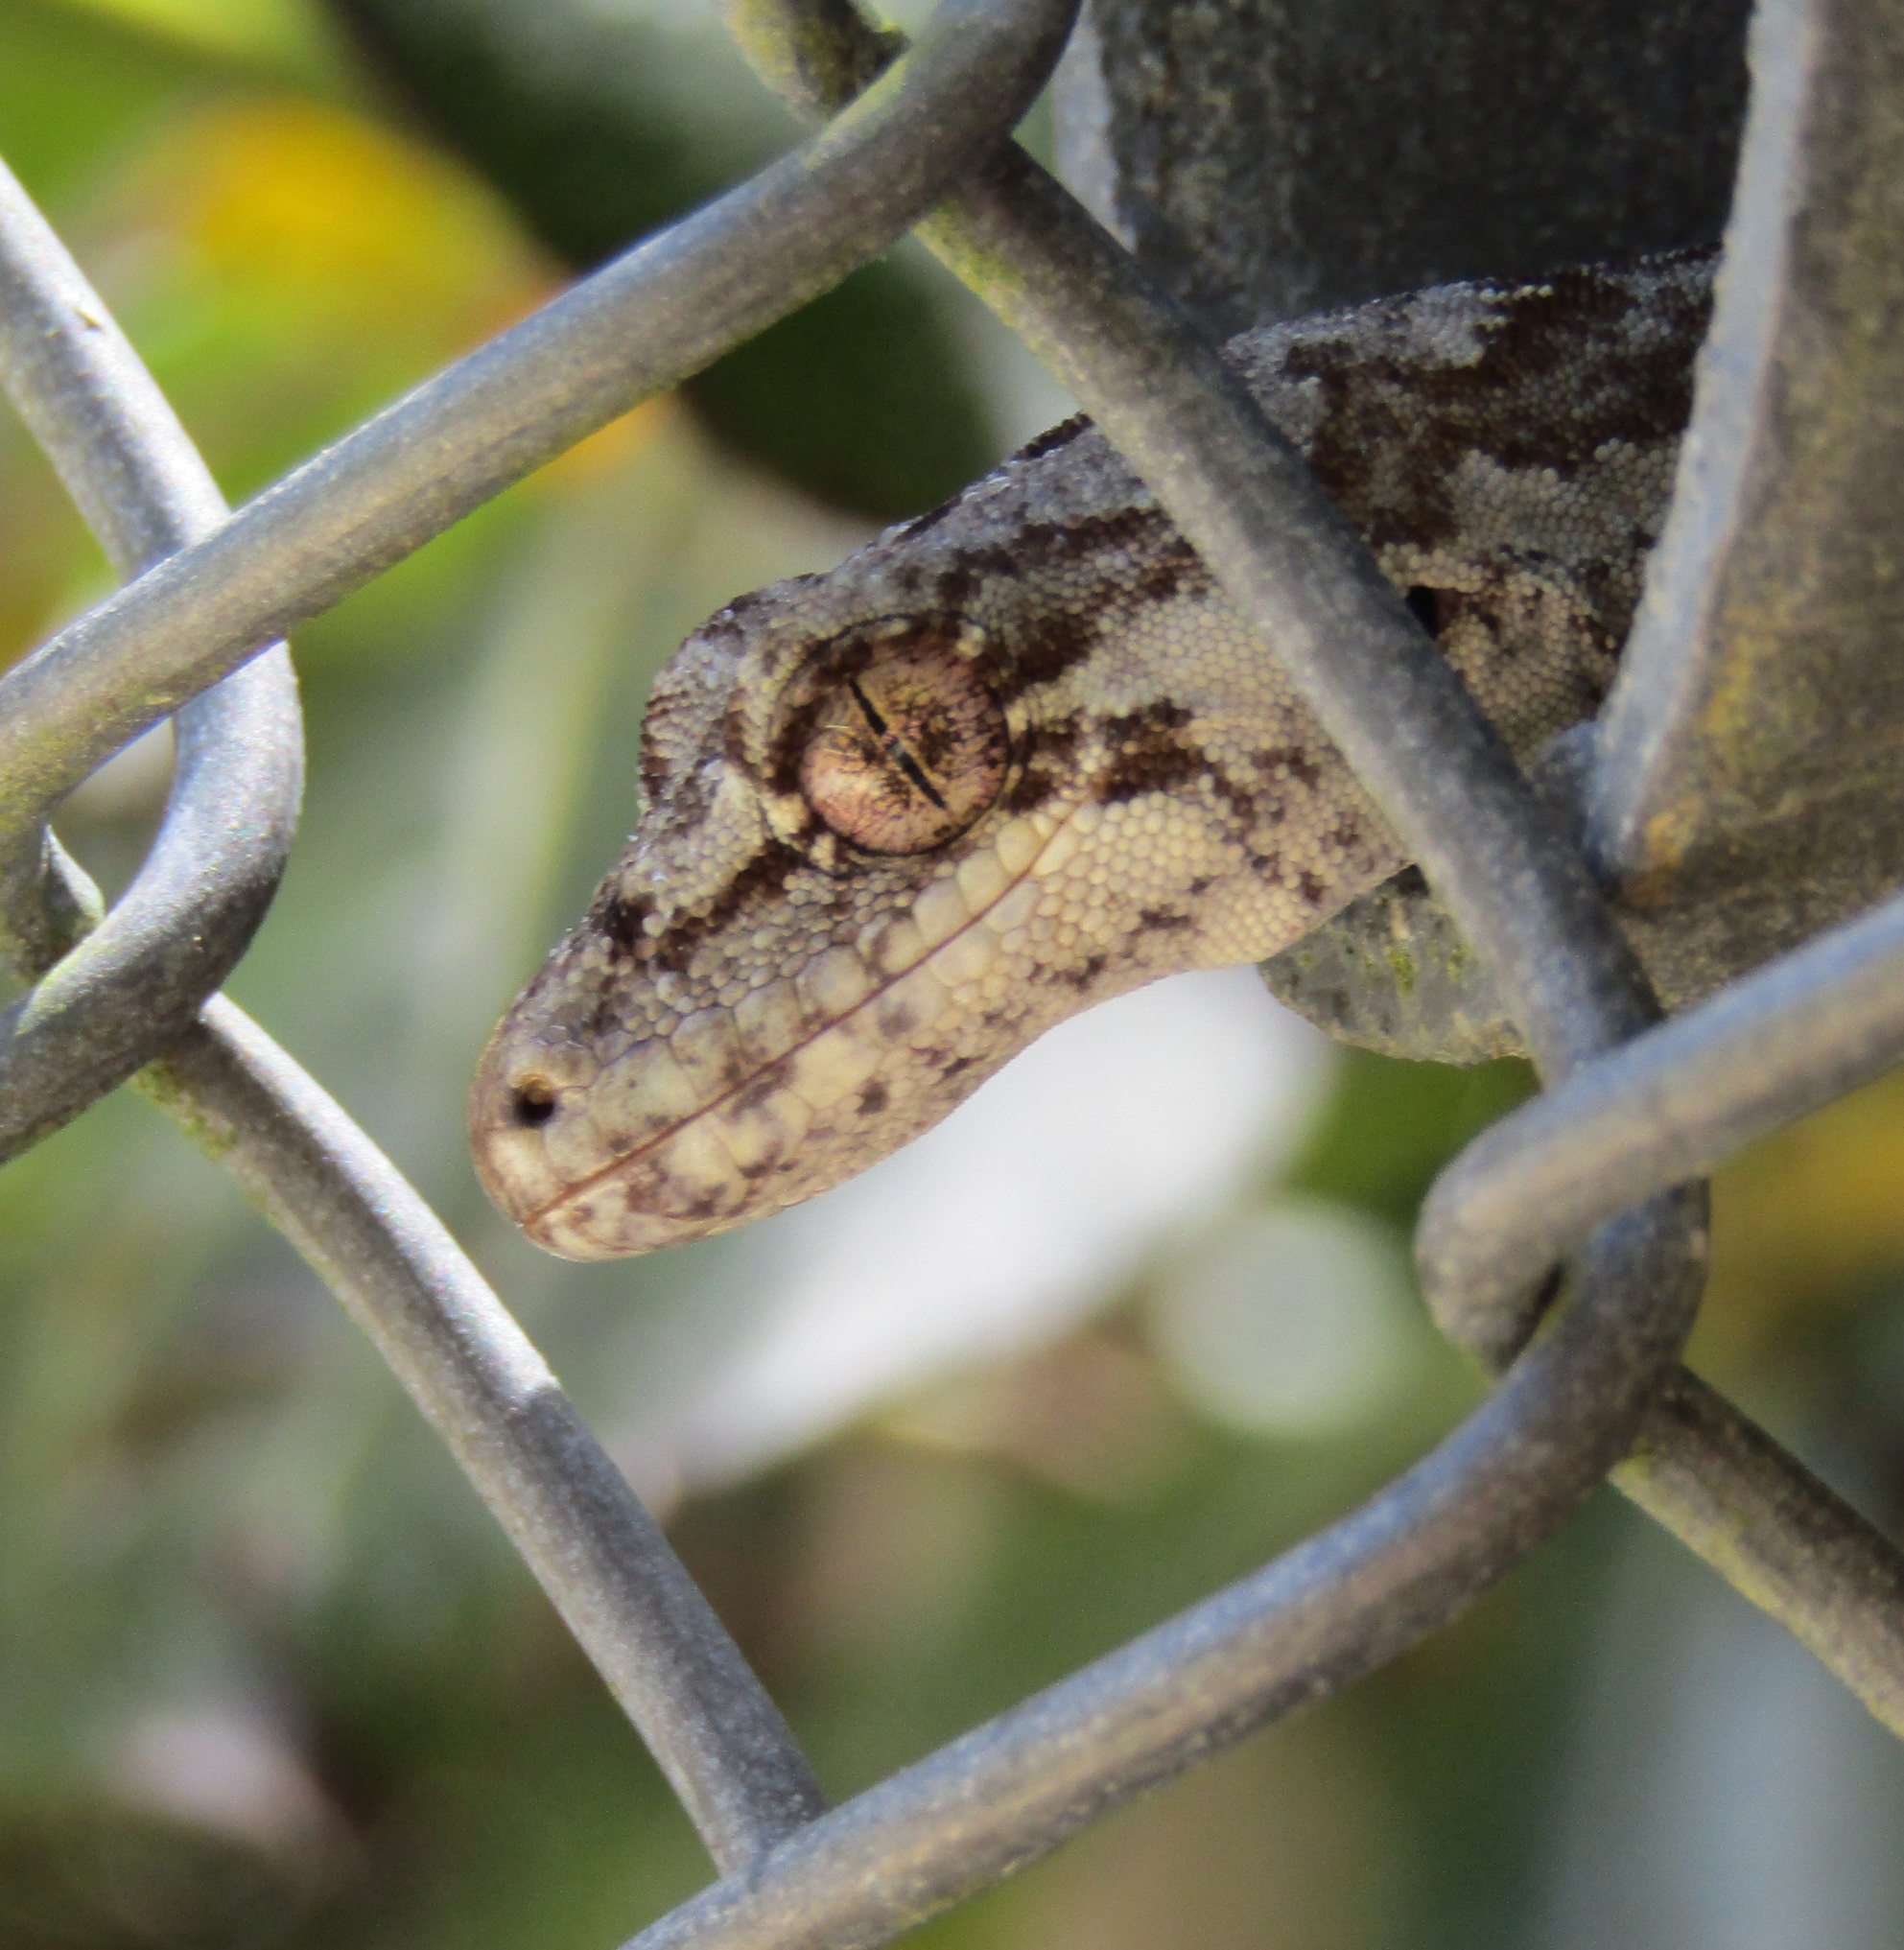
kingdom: Animalia
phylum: Chordata
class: Squamata
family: Diplodactylidae
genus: Mokopirirakau
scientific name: Mokopirirakau
